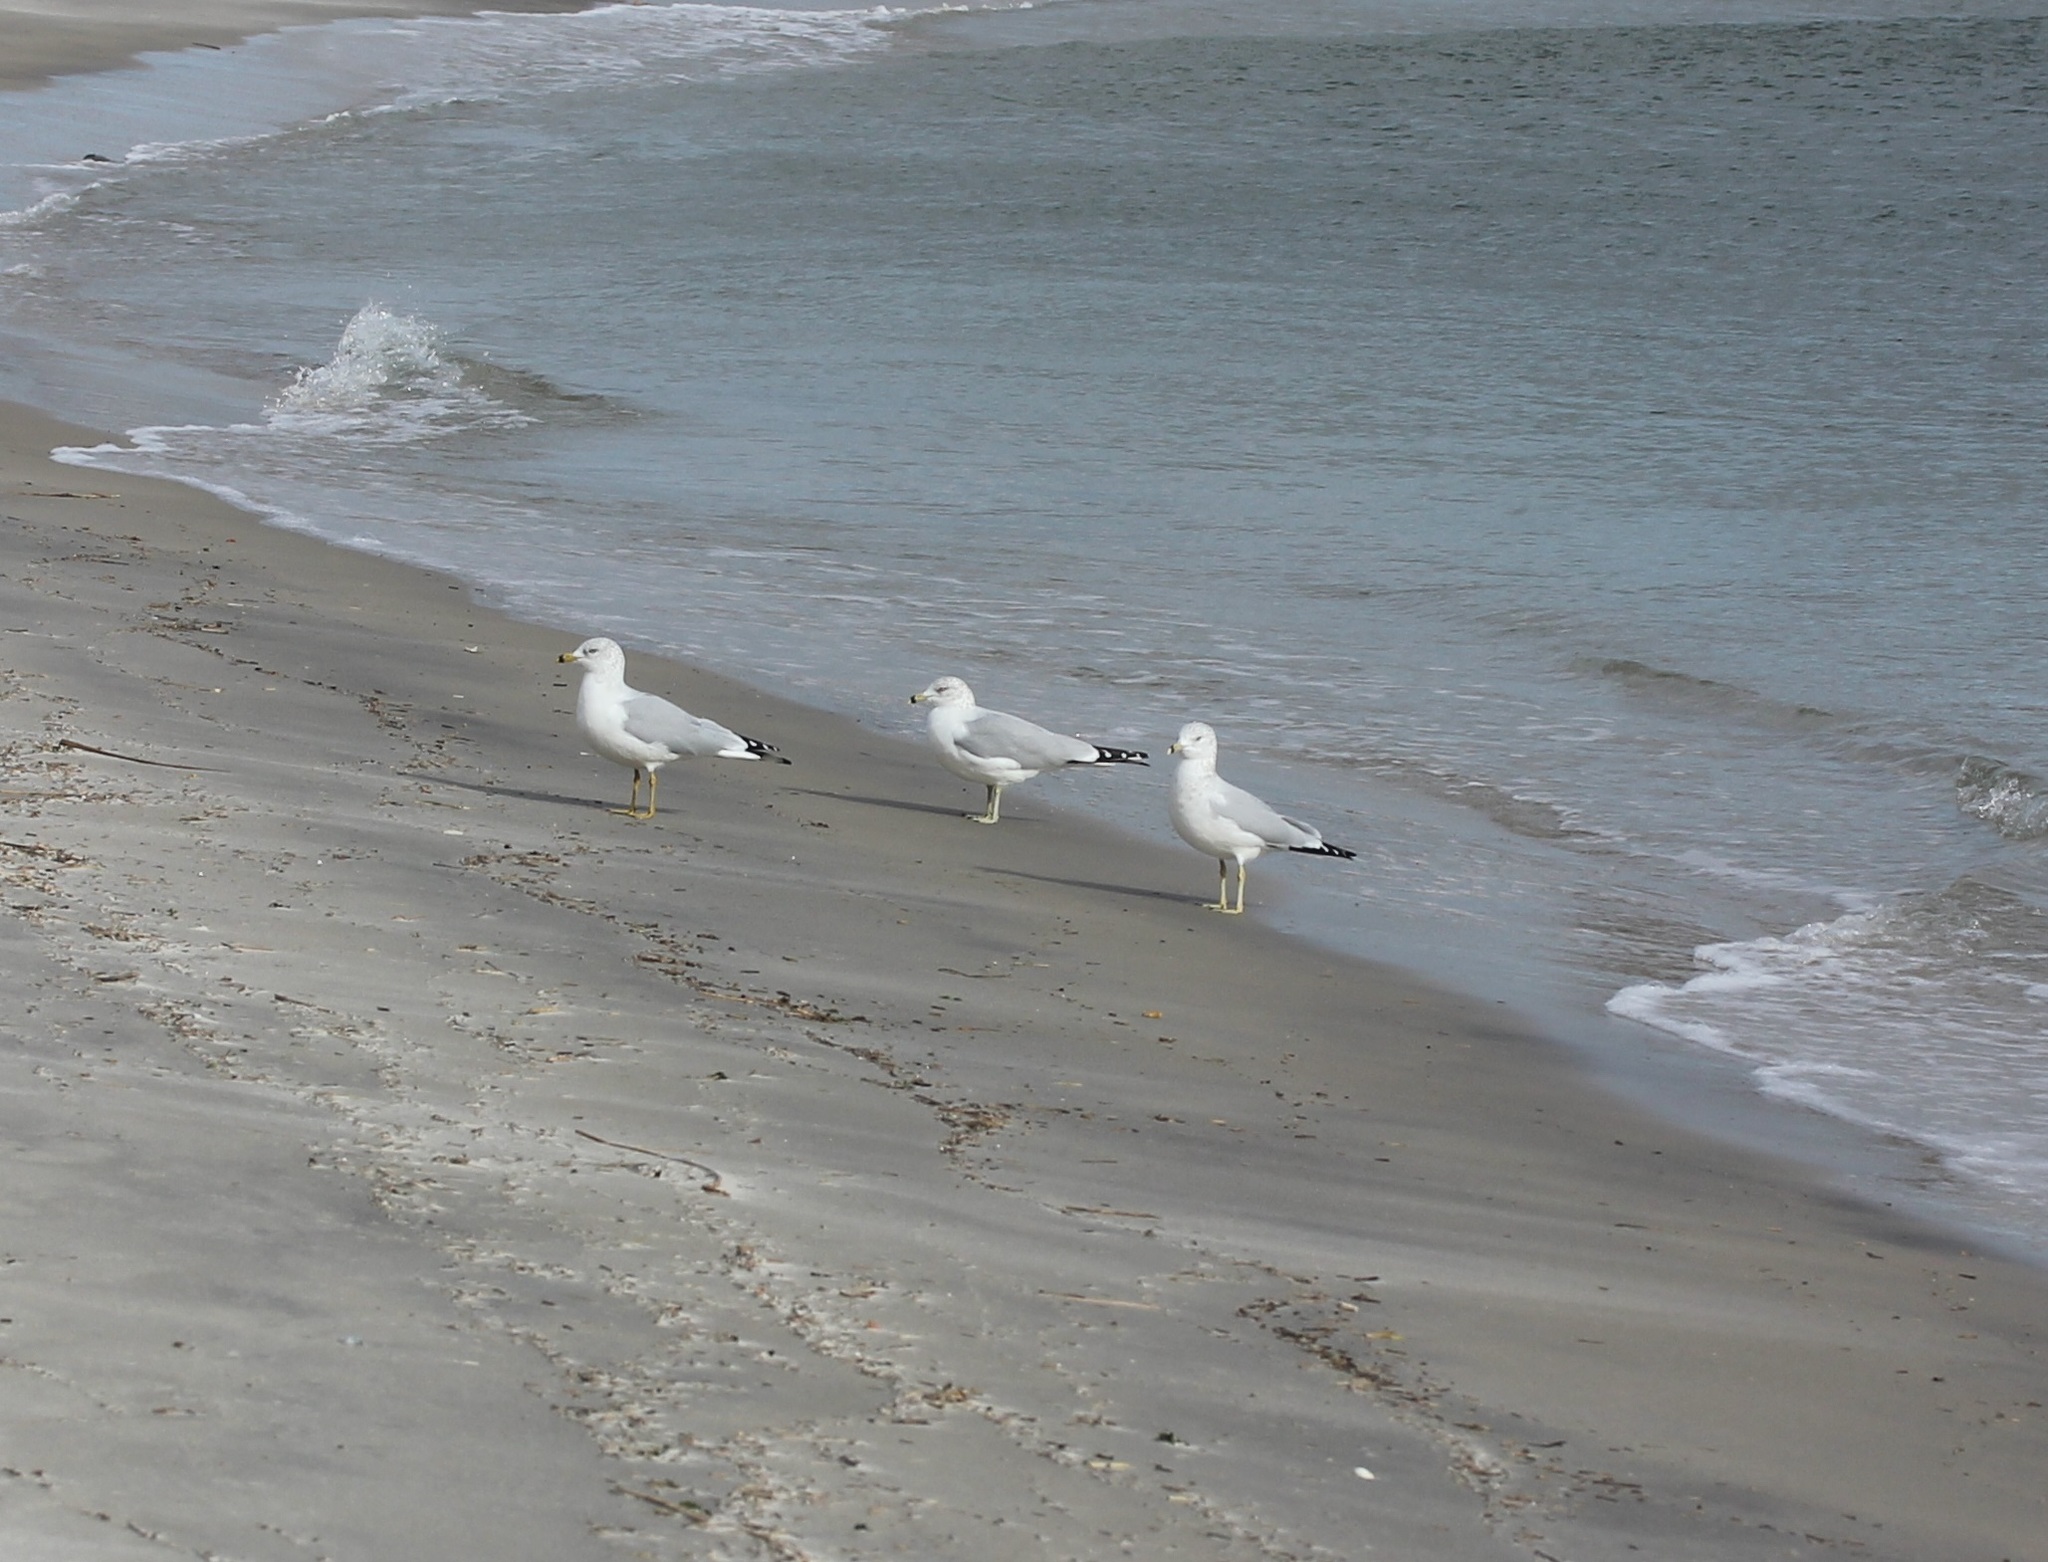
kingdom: Animalia
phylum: Chordata
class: Aves
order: Charadriiformes
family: Laridae
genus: Larus
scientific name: Larus delawarensis
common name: Ring-billed gull
